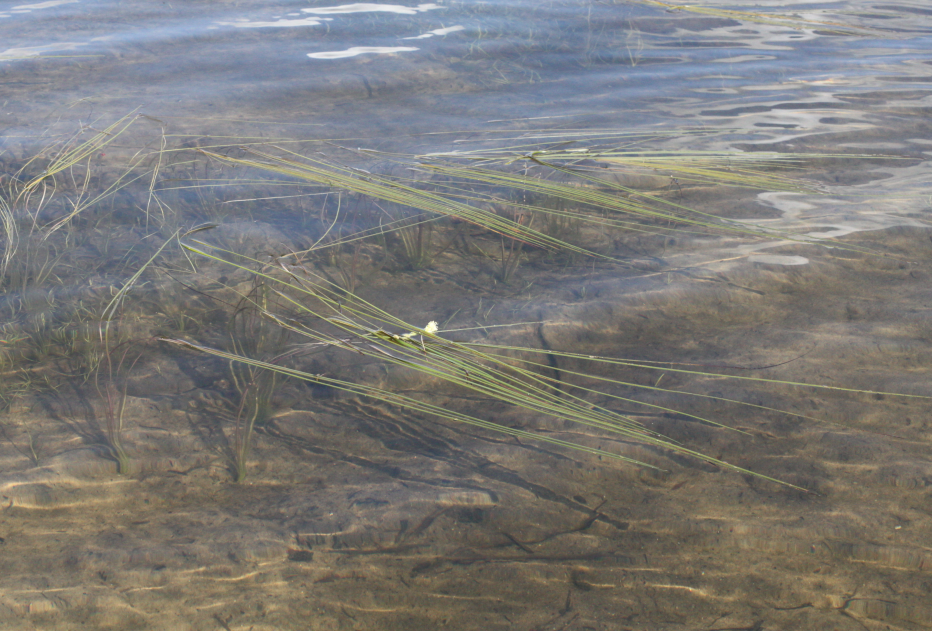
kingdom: Plantae
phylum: Tracheophyta
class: Liliopsida
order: Poales
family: Typhaceae
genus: Sparganium
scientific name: Sparganium angustifolium
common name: Floating bur-reed
